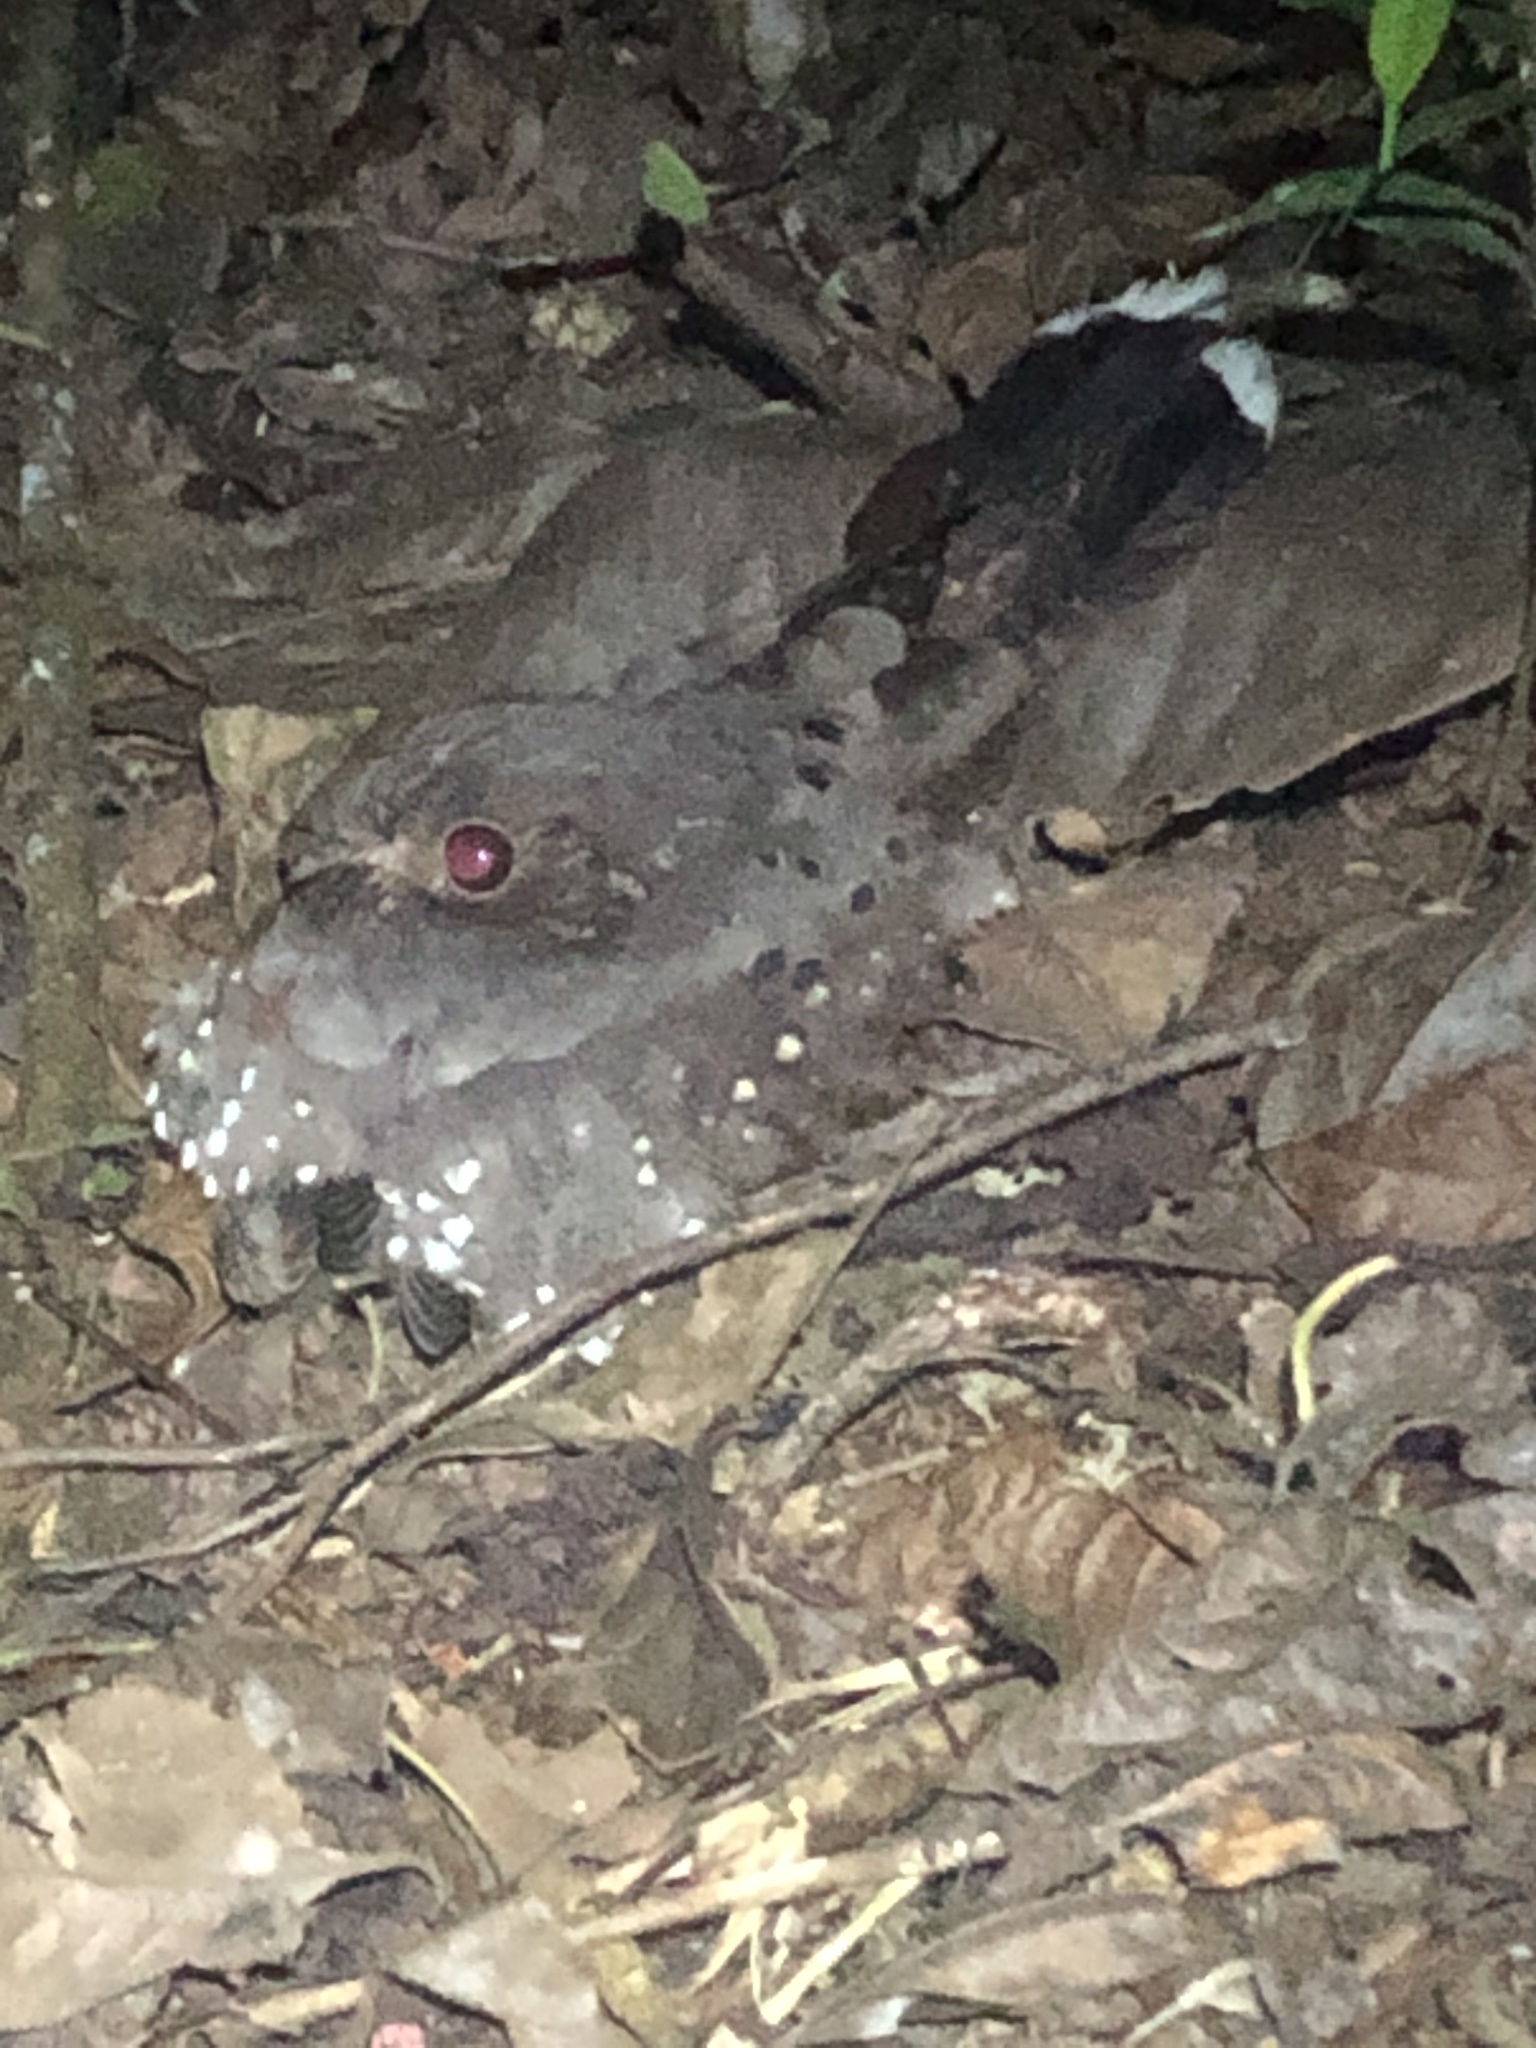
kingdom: Animalia
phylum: Chordata
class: Aves
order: Caprimulgiformes
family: Caprimulgidae
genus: Nyctiphrynus
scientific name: Nyctiphrynus ocellatus
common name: Ocellated poorwill
